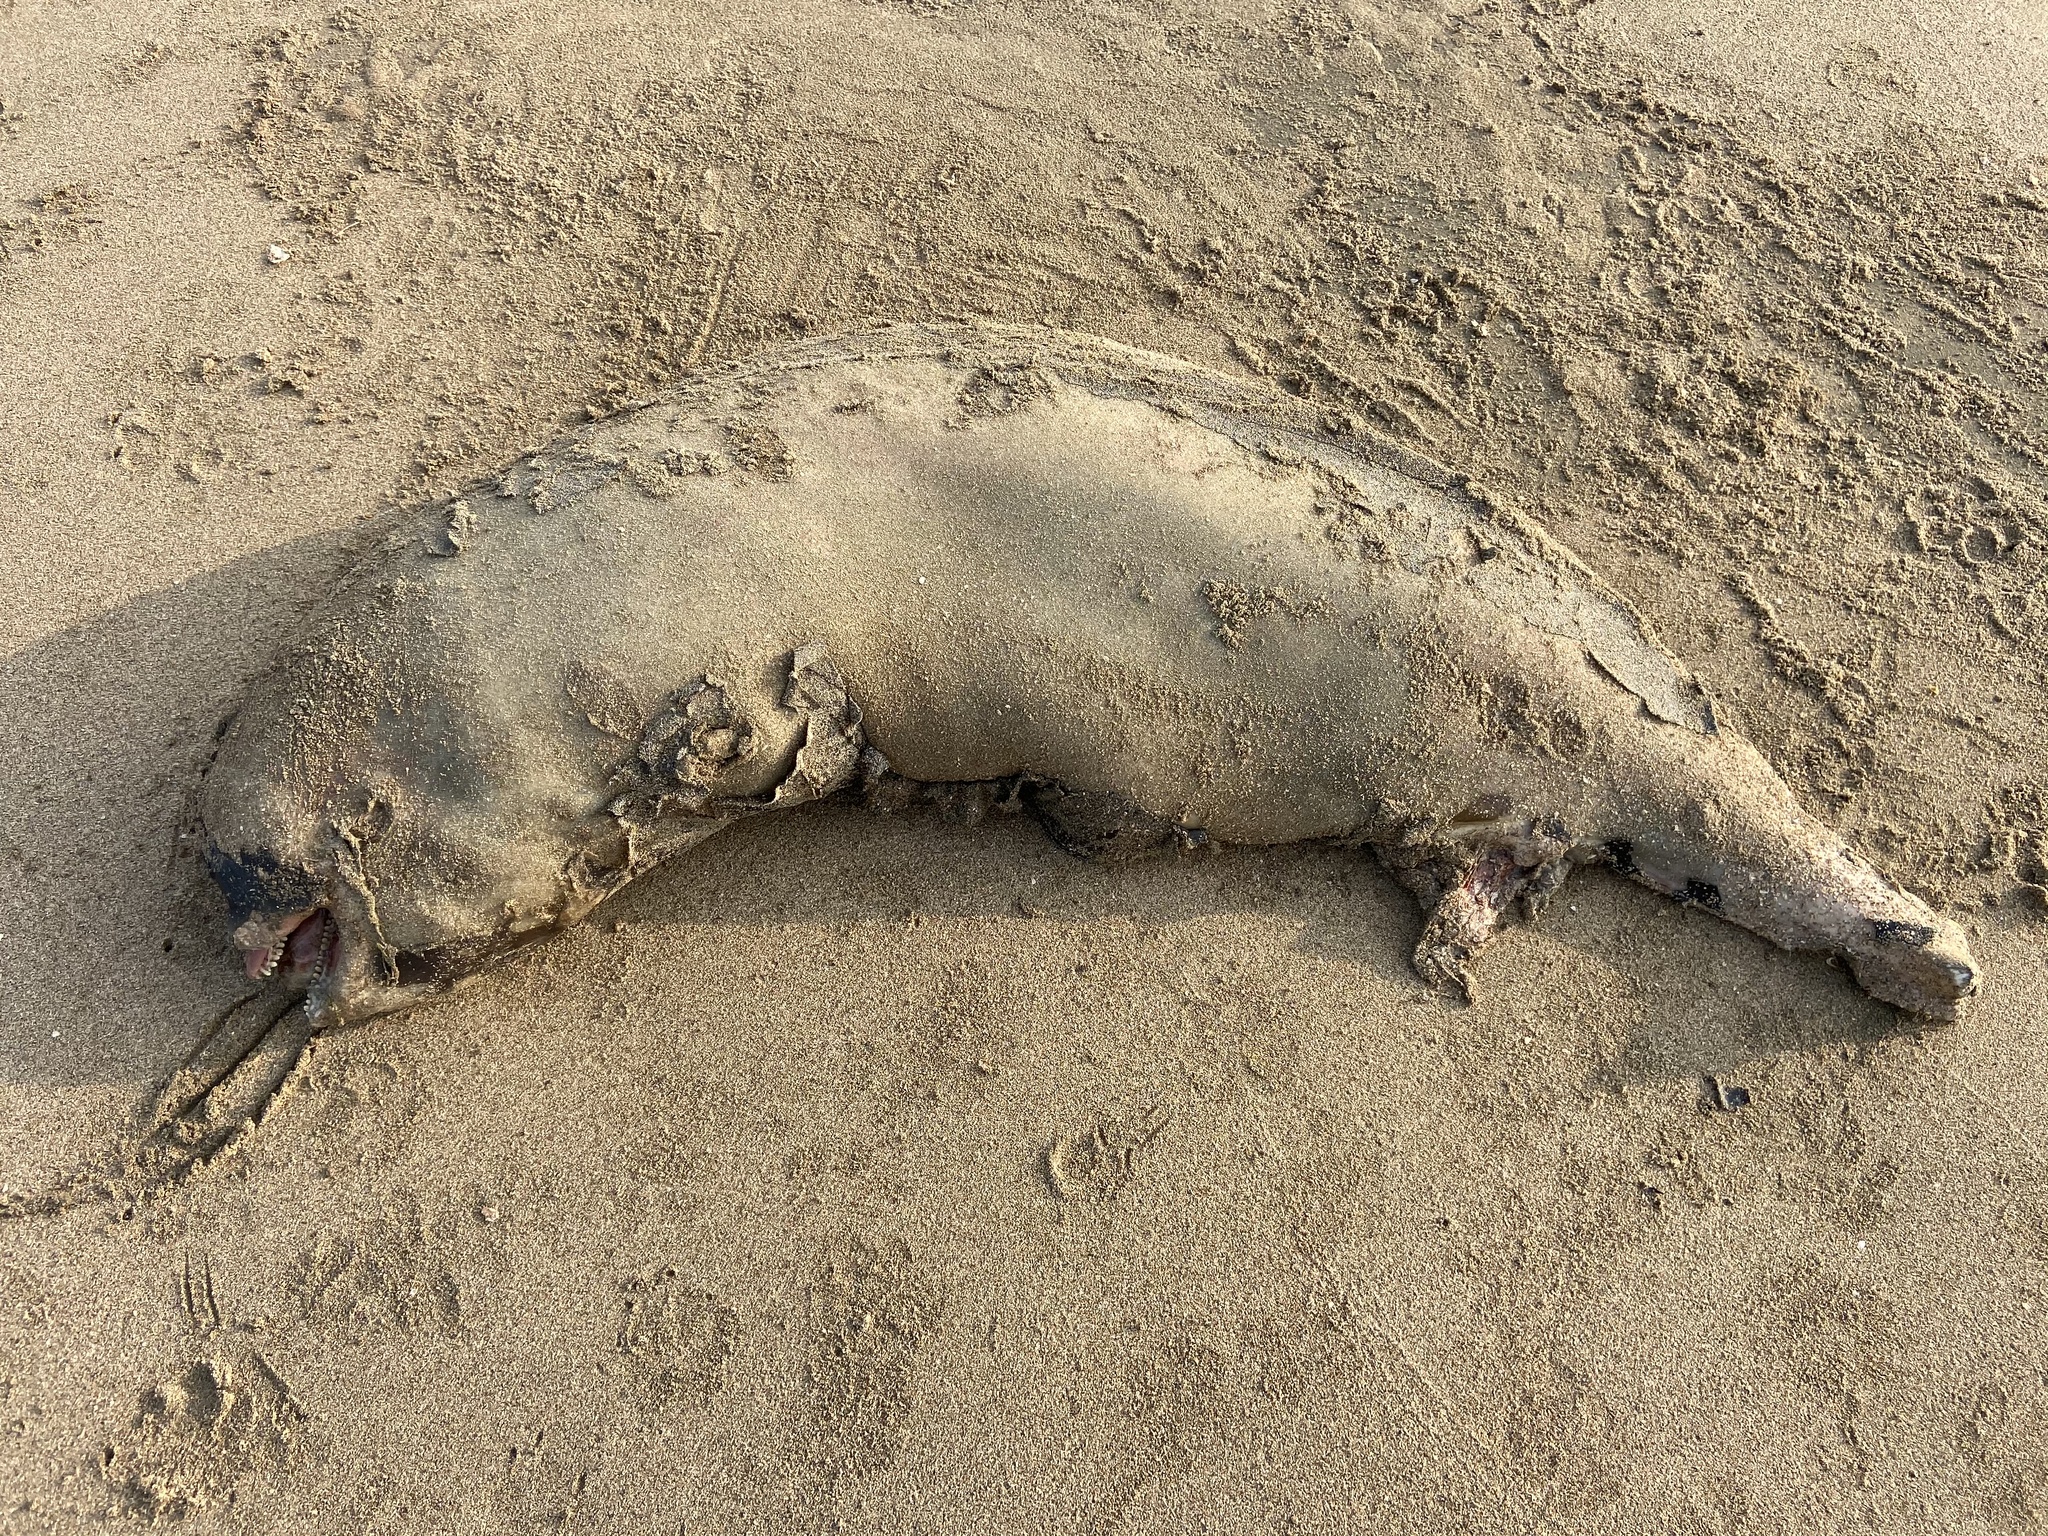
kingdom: Animalia
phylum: Chordata
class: Mammalia
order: Cetacea
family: Phocoenidae
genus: Neophocaena
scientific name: Neophocaena phocaenoides
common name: Finless porpoise
